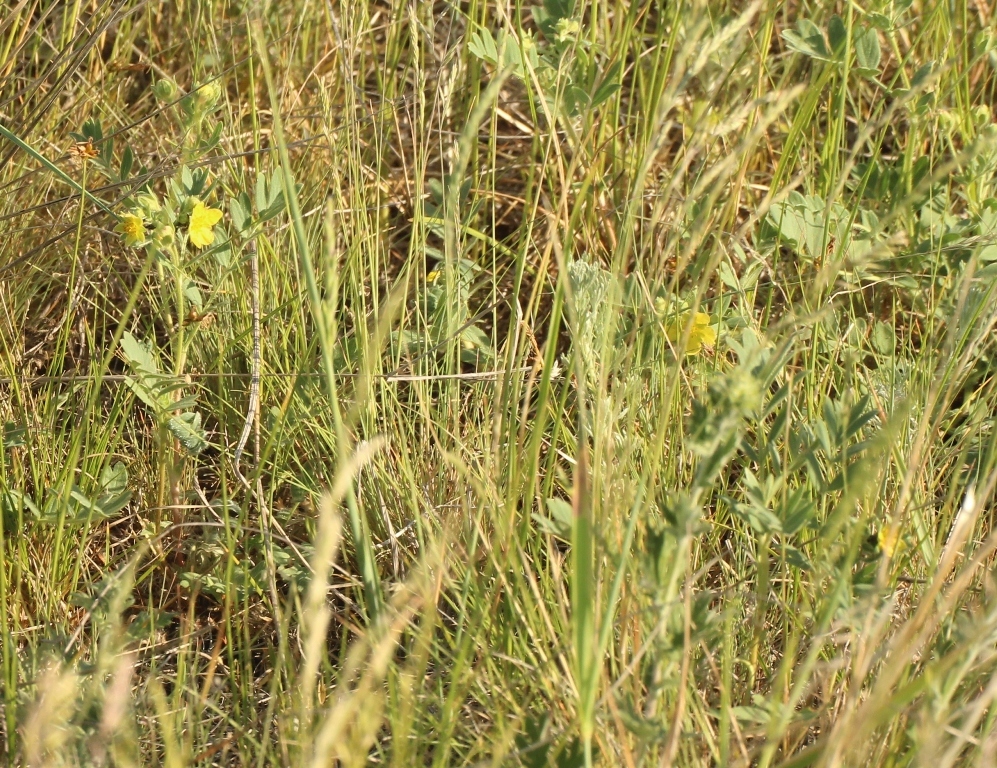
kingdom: Plantae
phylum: Tracheophyta
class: Magnoliopsida
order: Rosales
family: Rosaceae
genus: Sibbaldianthe
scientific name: Sibbaldianthe bifurca
